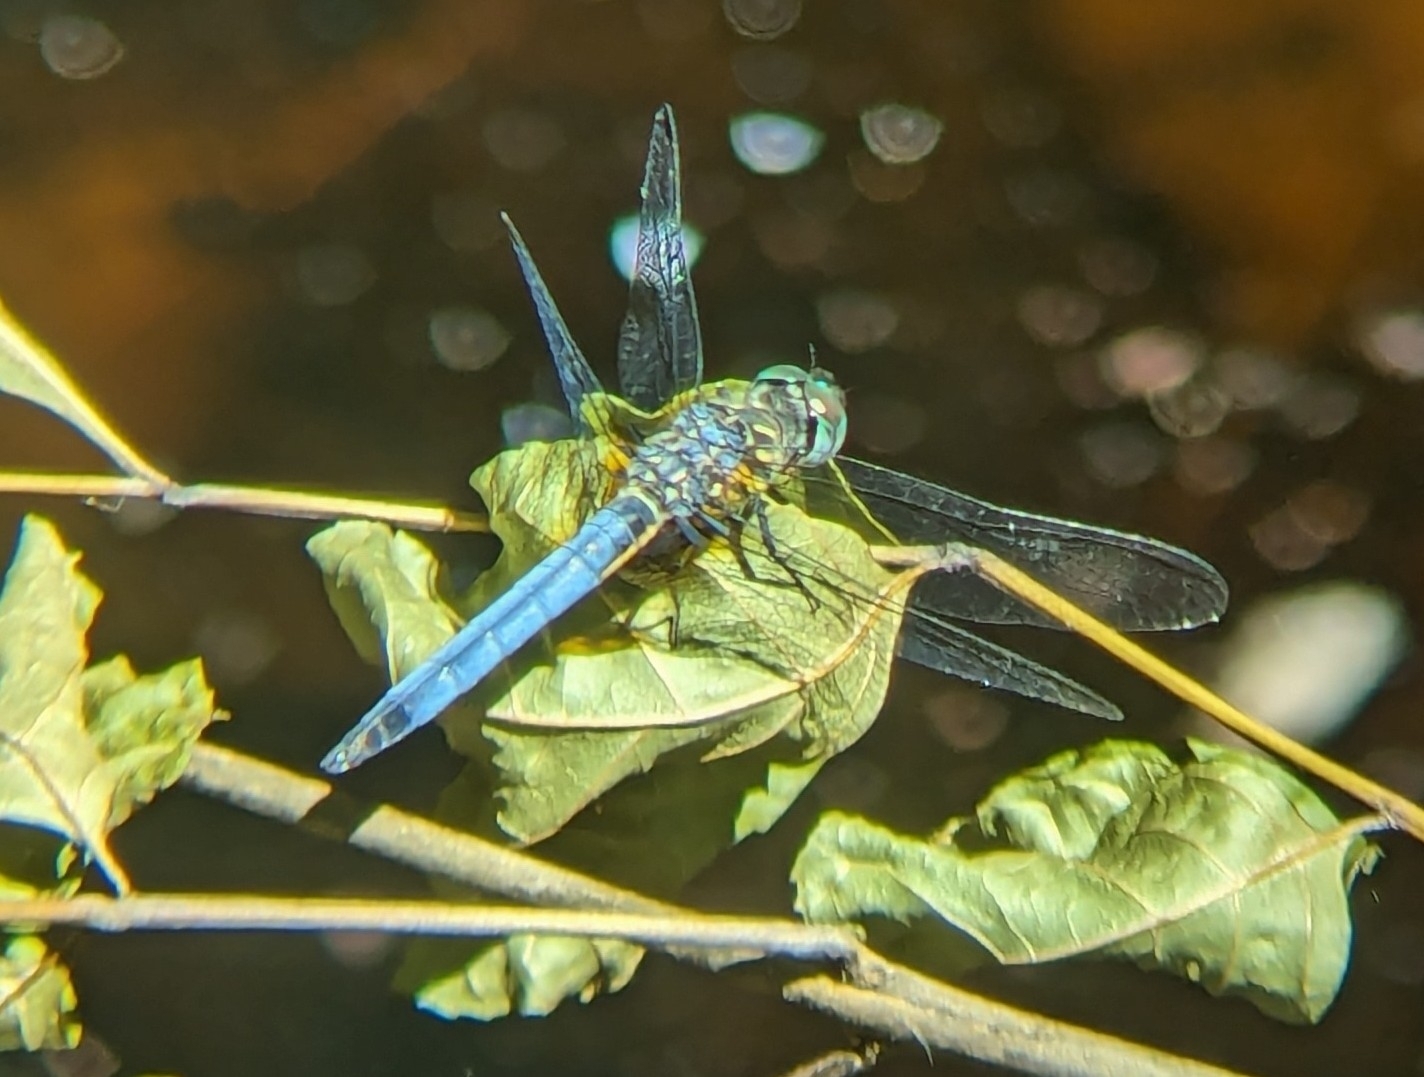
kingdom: Animalia
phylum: Arthropoda
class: Insecta
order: Odonata
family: Libellulidae
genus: Pachydiplax
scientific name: Pachydiplax longipennis
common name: Blue dasher
